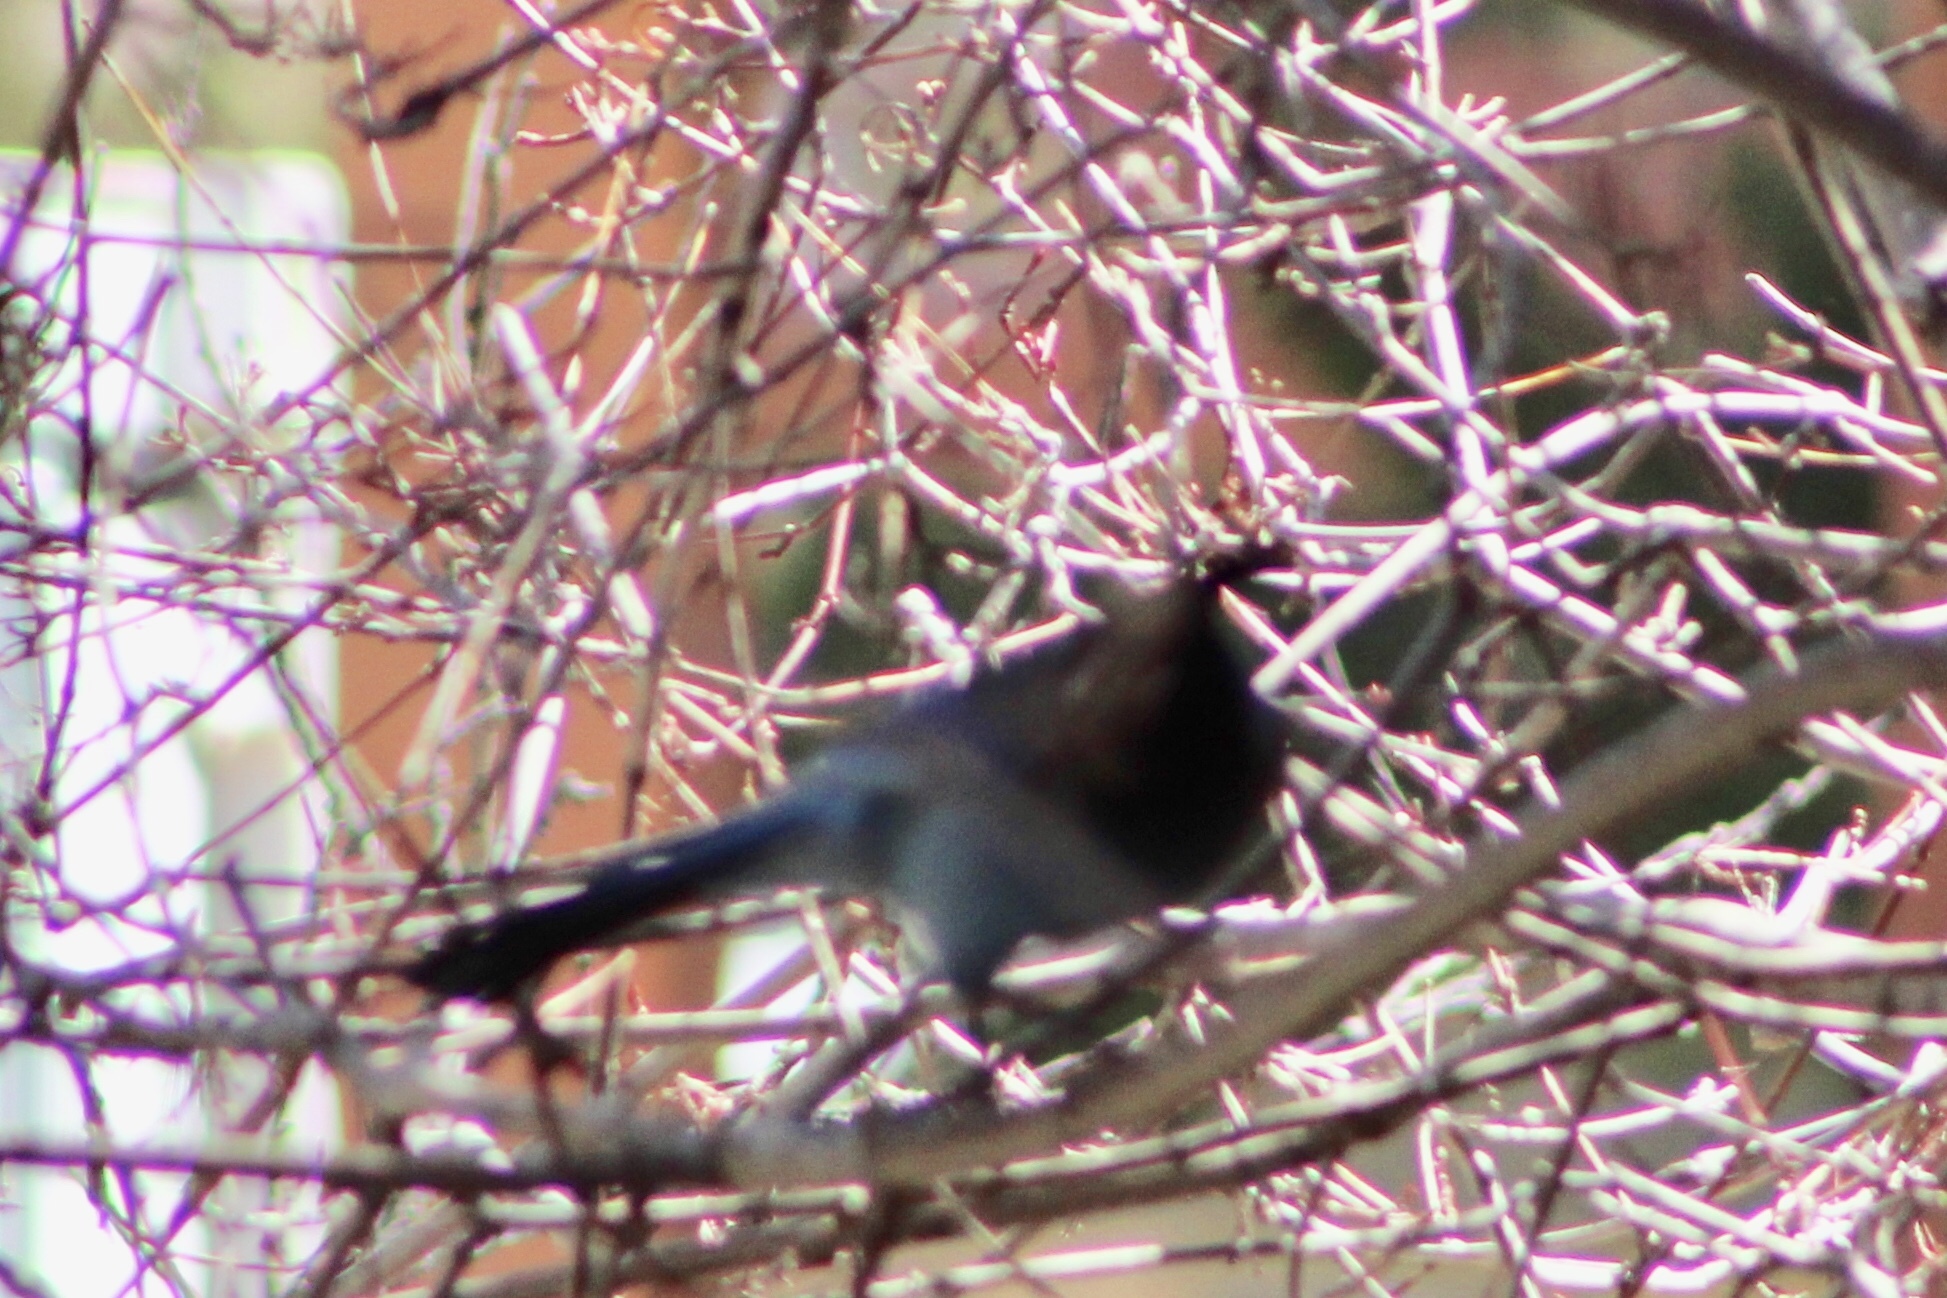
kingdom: Animalia
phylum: Chordata
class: Aves
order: Passeriformes
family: Corvidae
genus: Cyanocitta
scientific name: Cyanocitta stelleri
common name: Steller's jay
